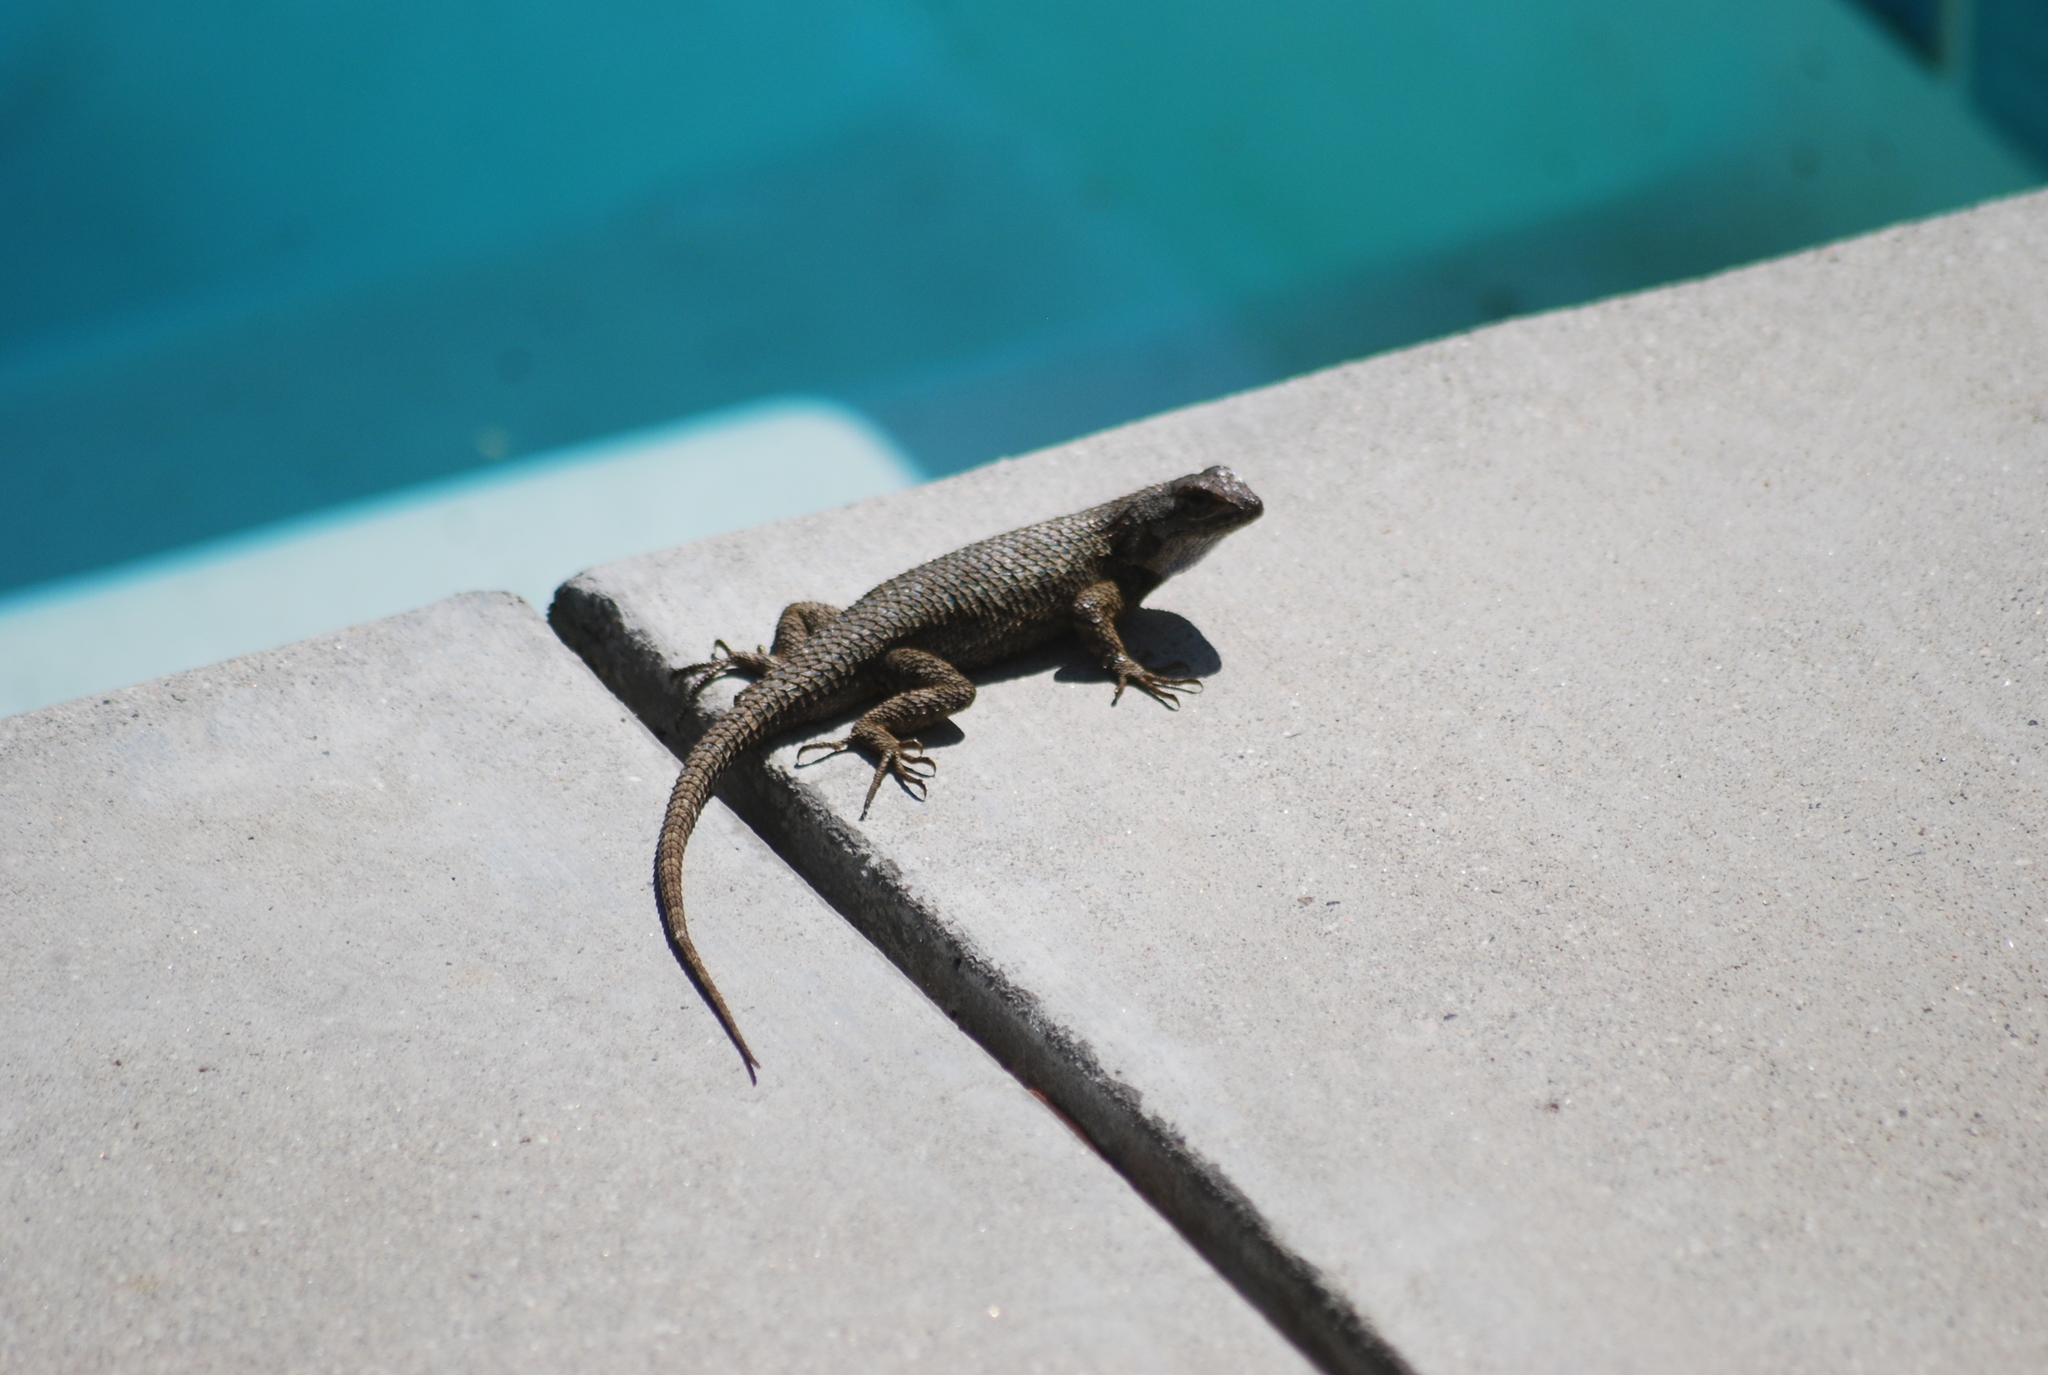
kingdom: Animalia
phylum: Chordata
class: Squamata
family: Phrynosomatidae
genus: Sceloporus
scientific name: Sceloporus occidentalis
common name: Western fence lizard
